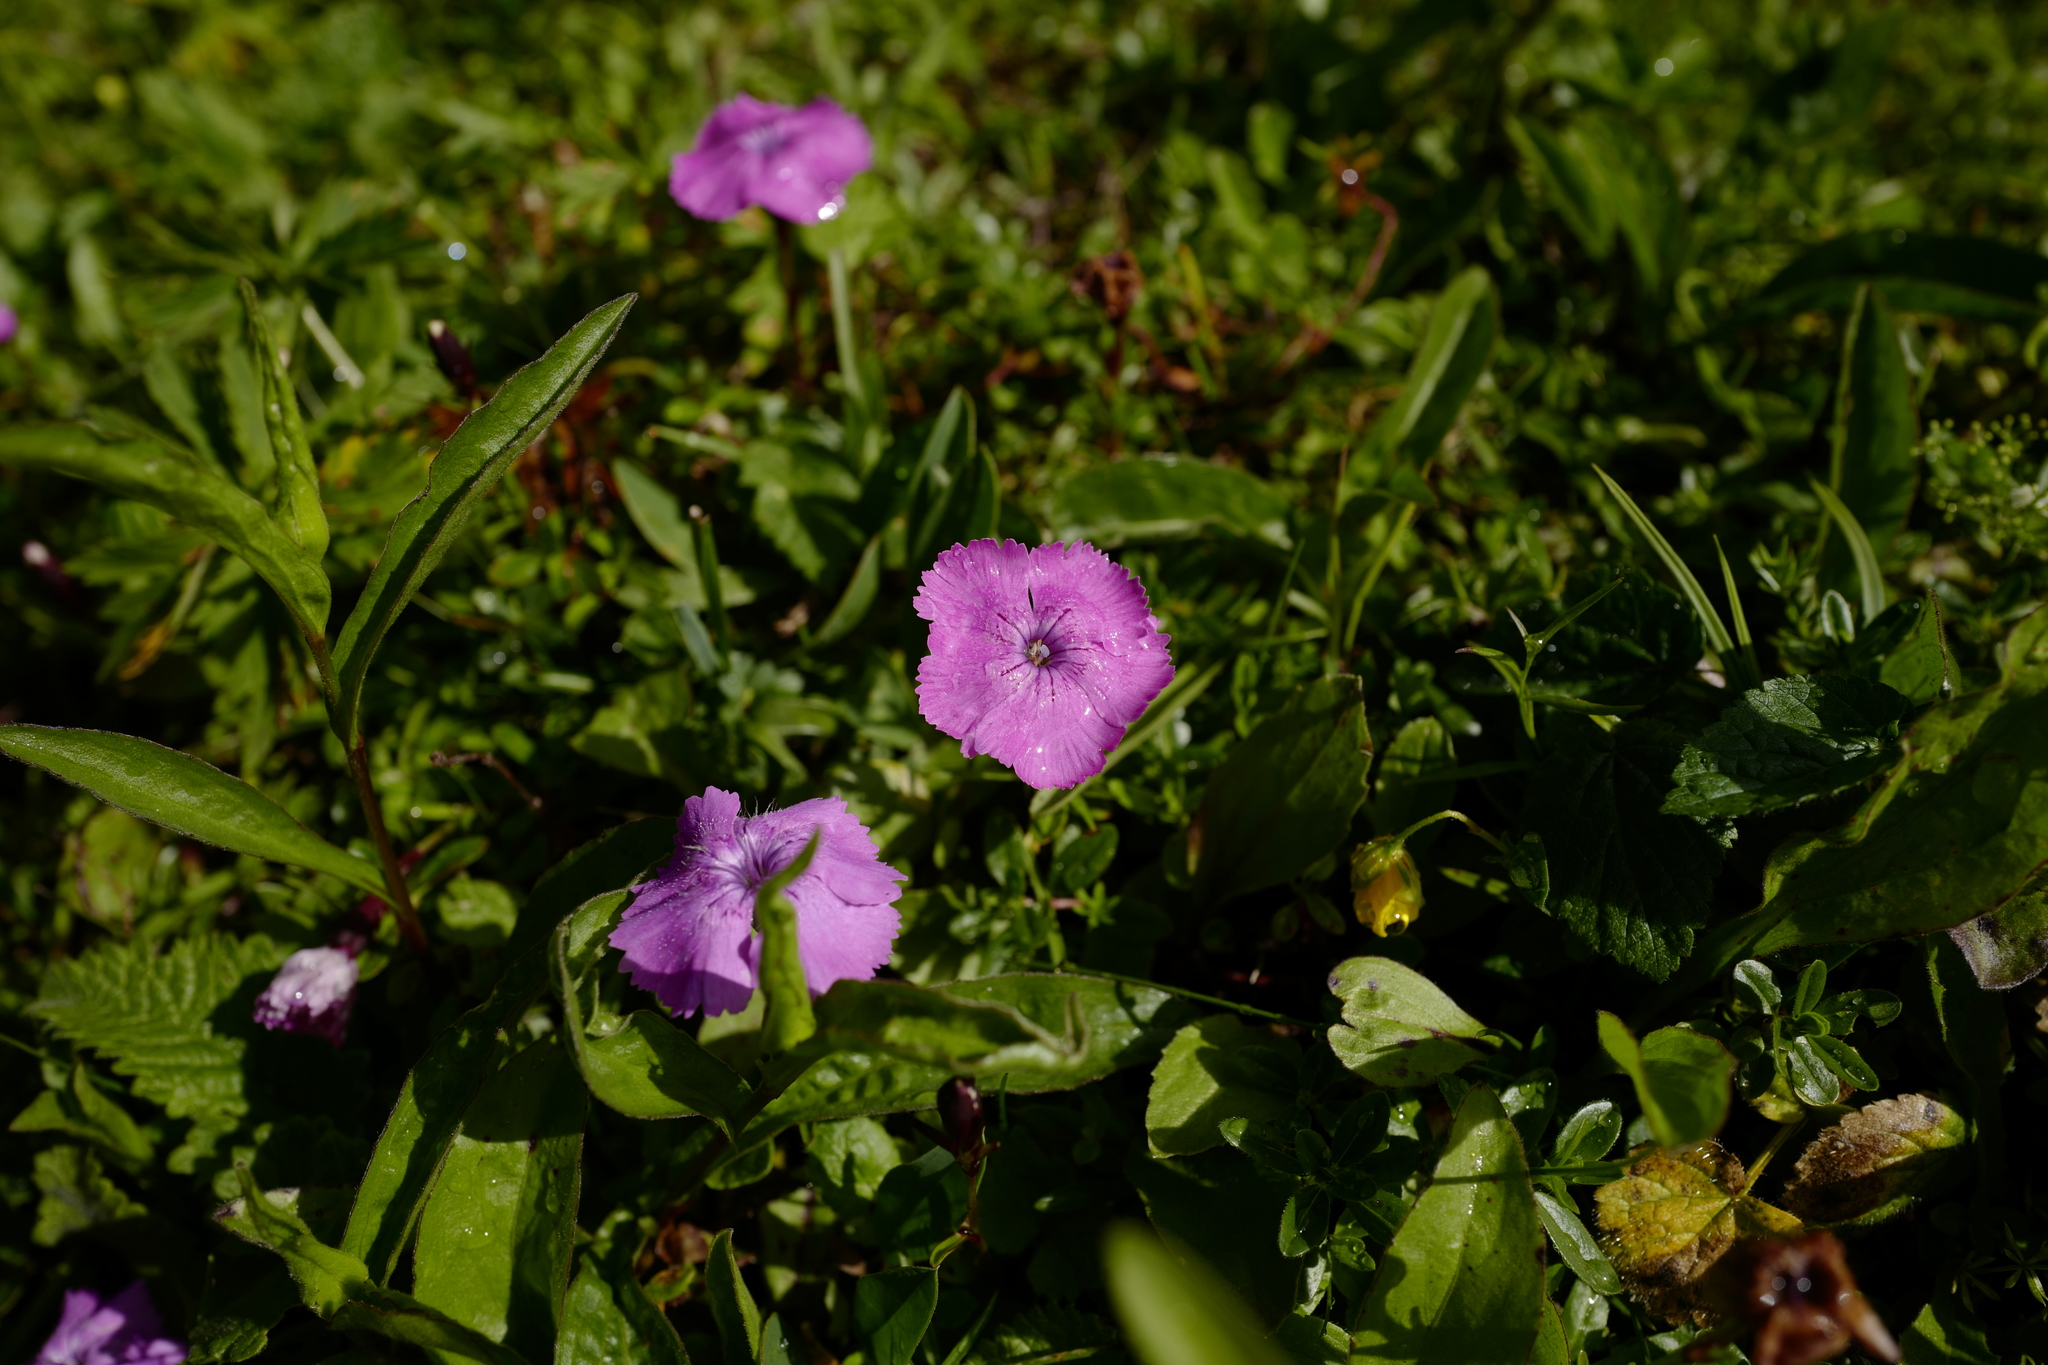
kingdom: Plantae
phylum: Tracheophyta
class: Magnoliopsida
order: Caryophyllales
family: Caryophyllaceae
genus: Dianthus
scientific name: Dianthus alpinus
